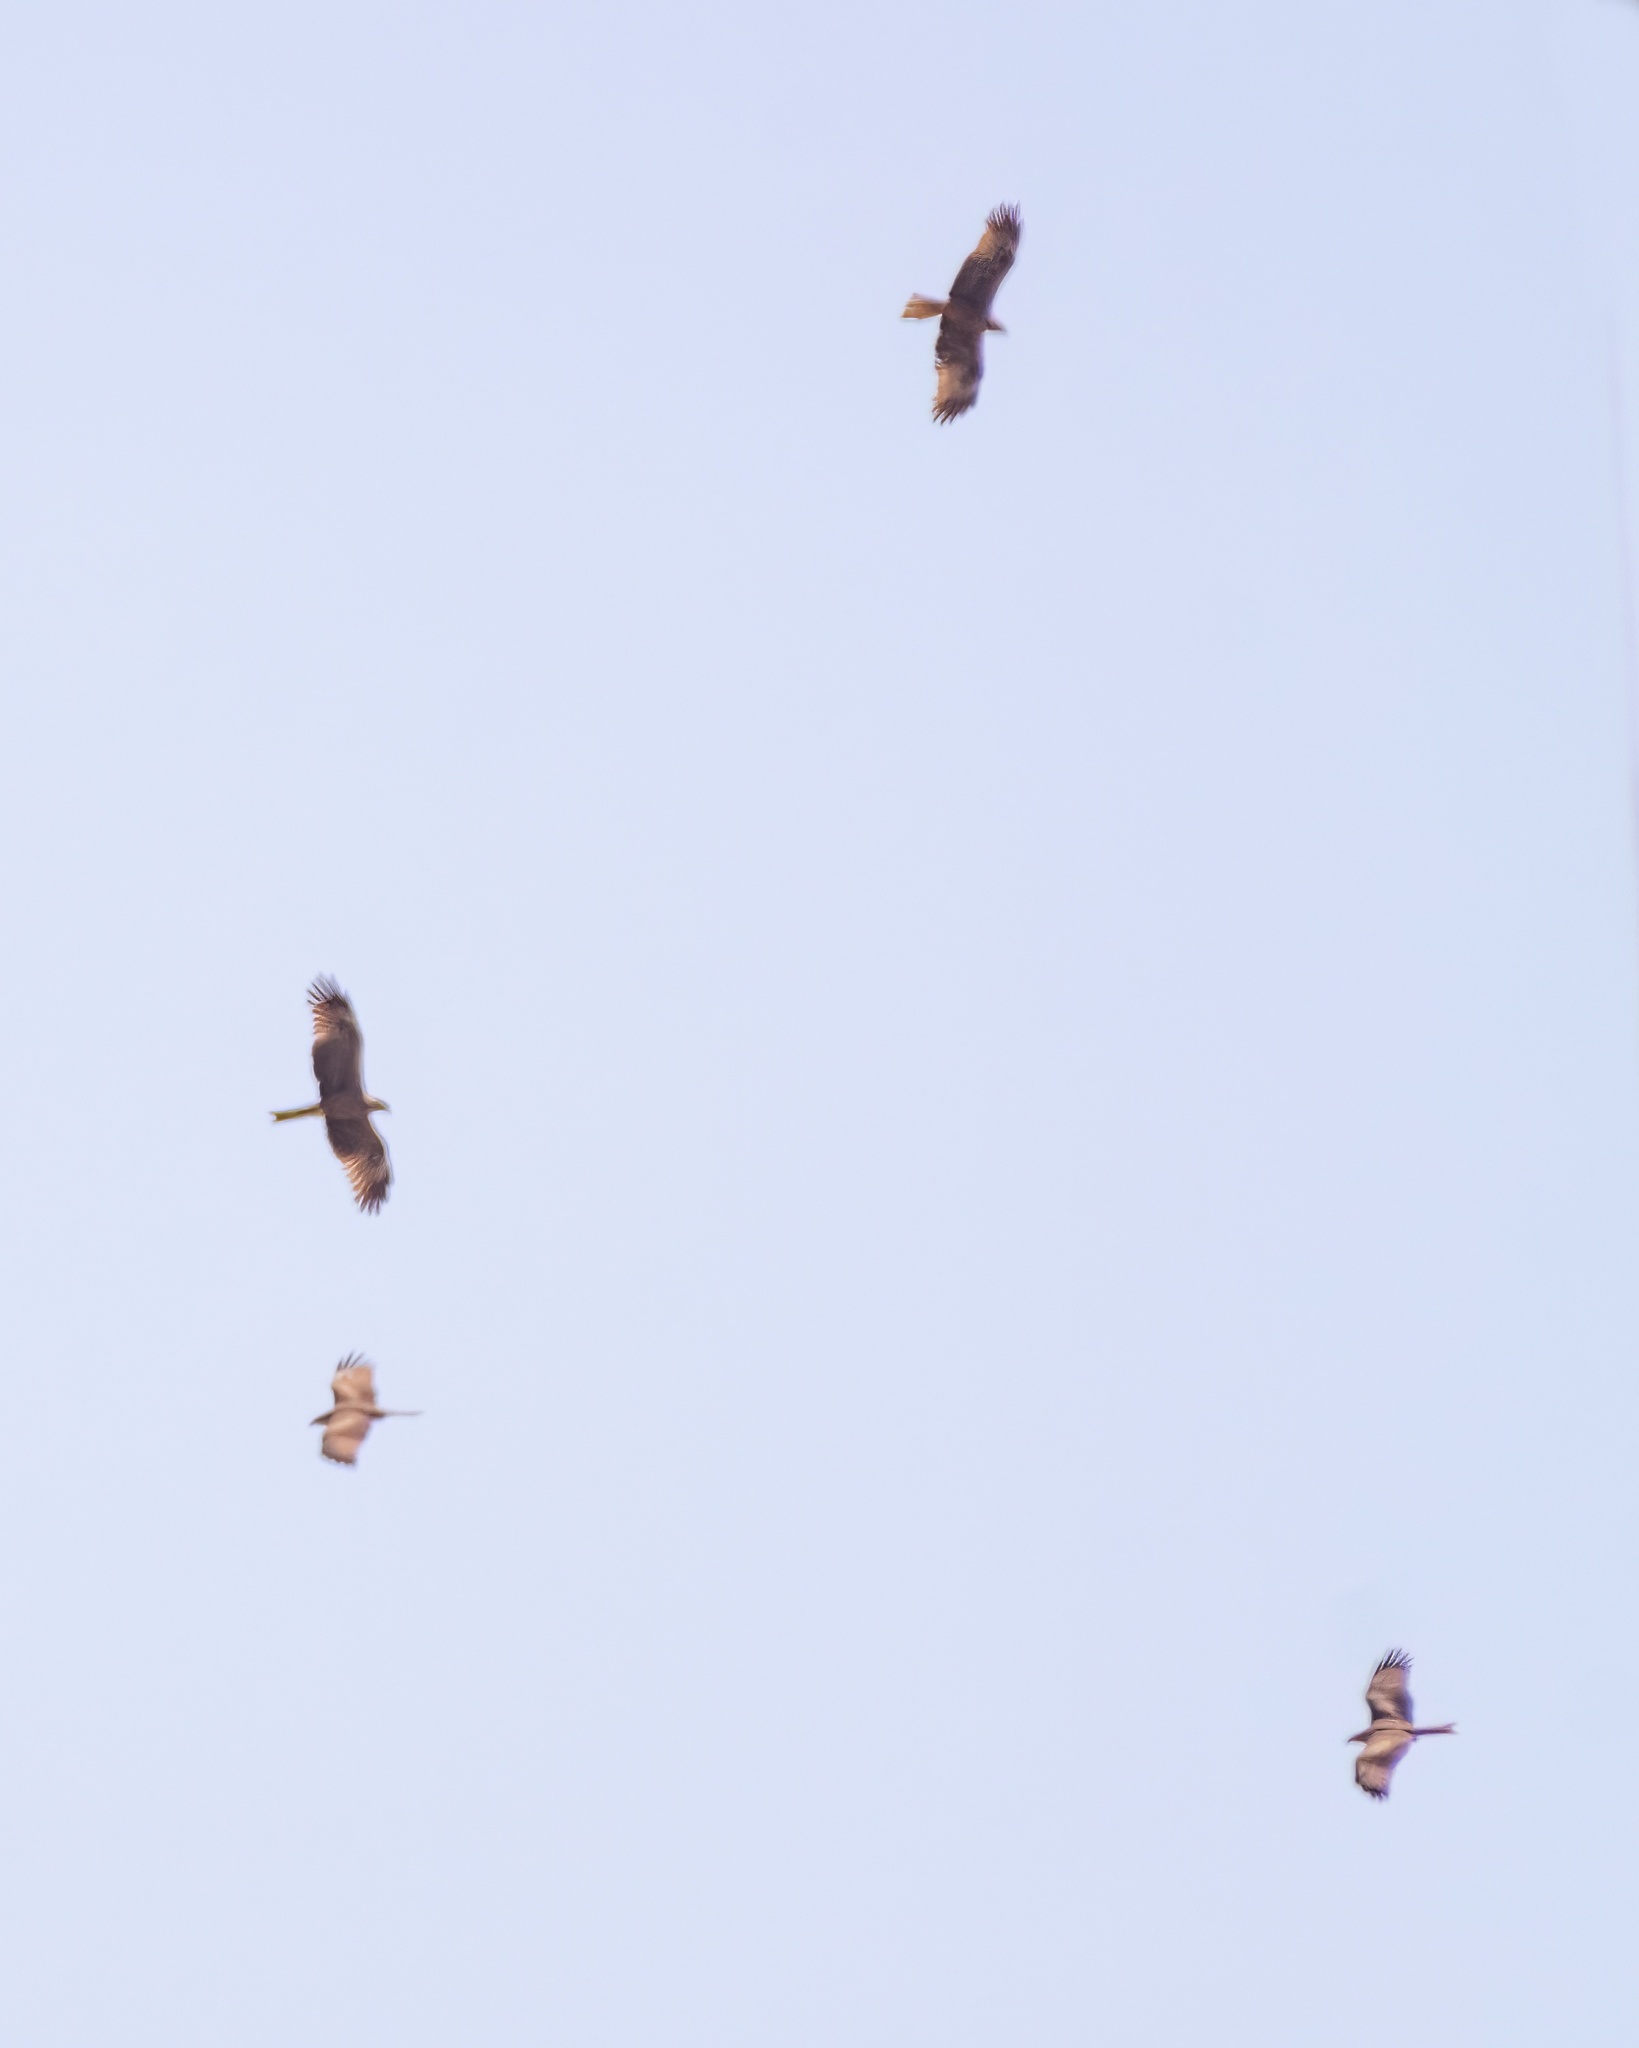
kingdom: Animalia
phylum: Chordata
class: Aves
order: Accipitriformes
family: Accipitridae
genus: Milvus
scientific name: Milvus migrans
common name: Black kite
